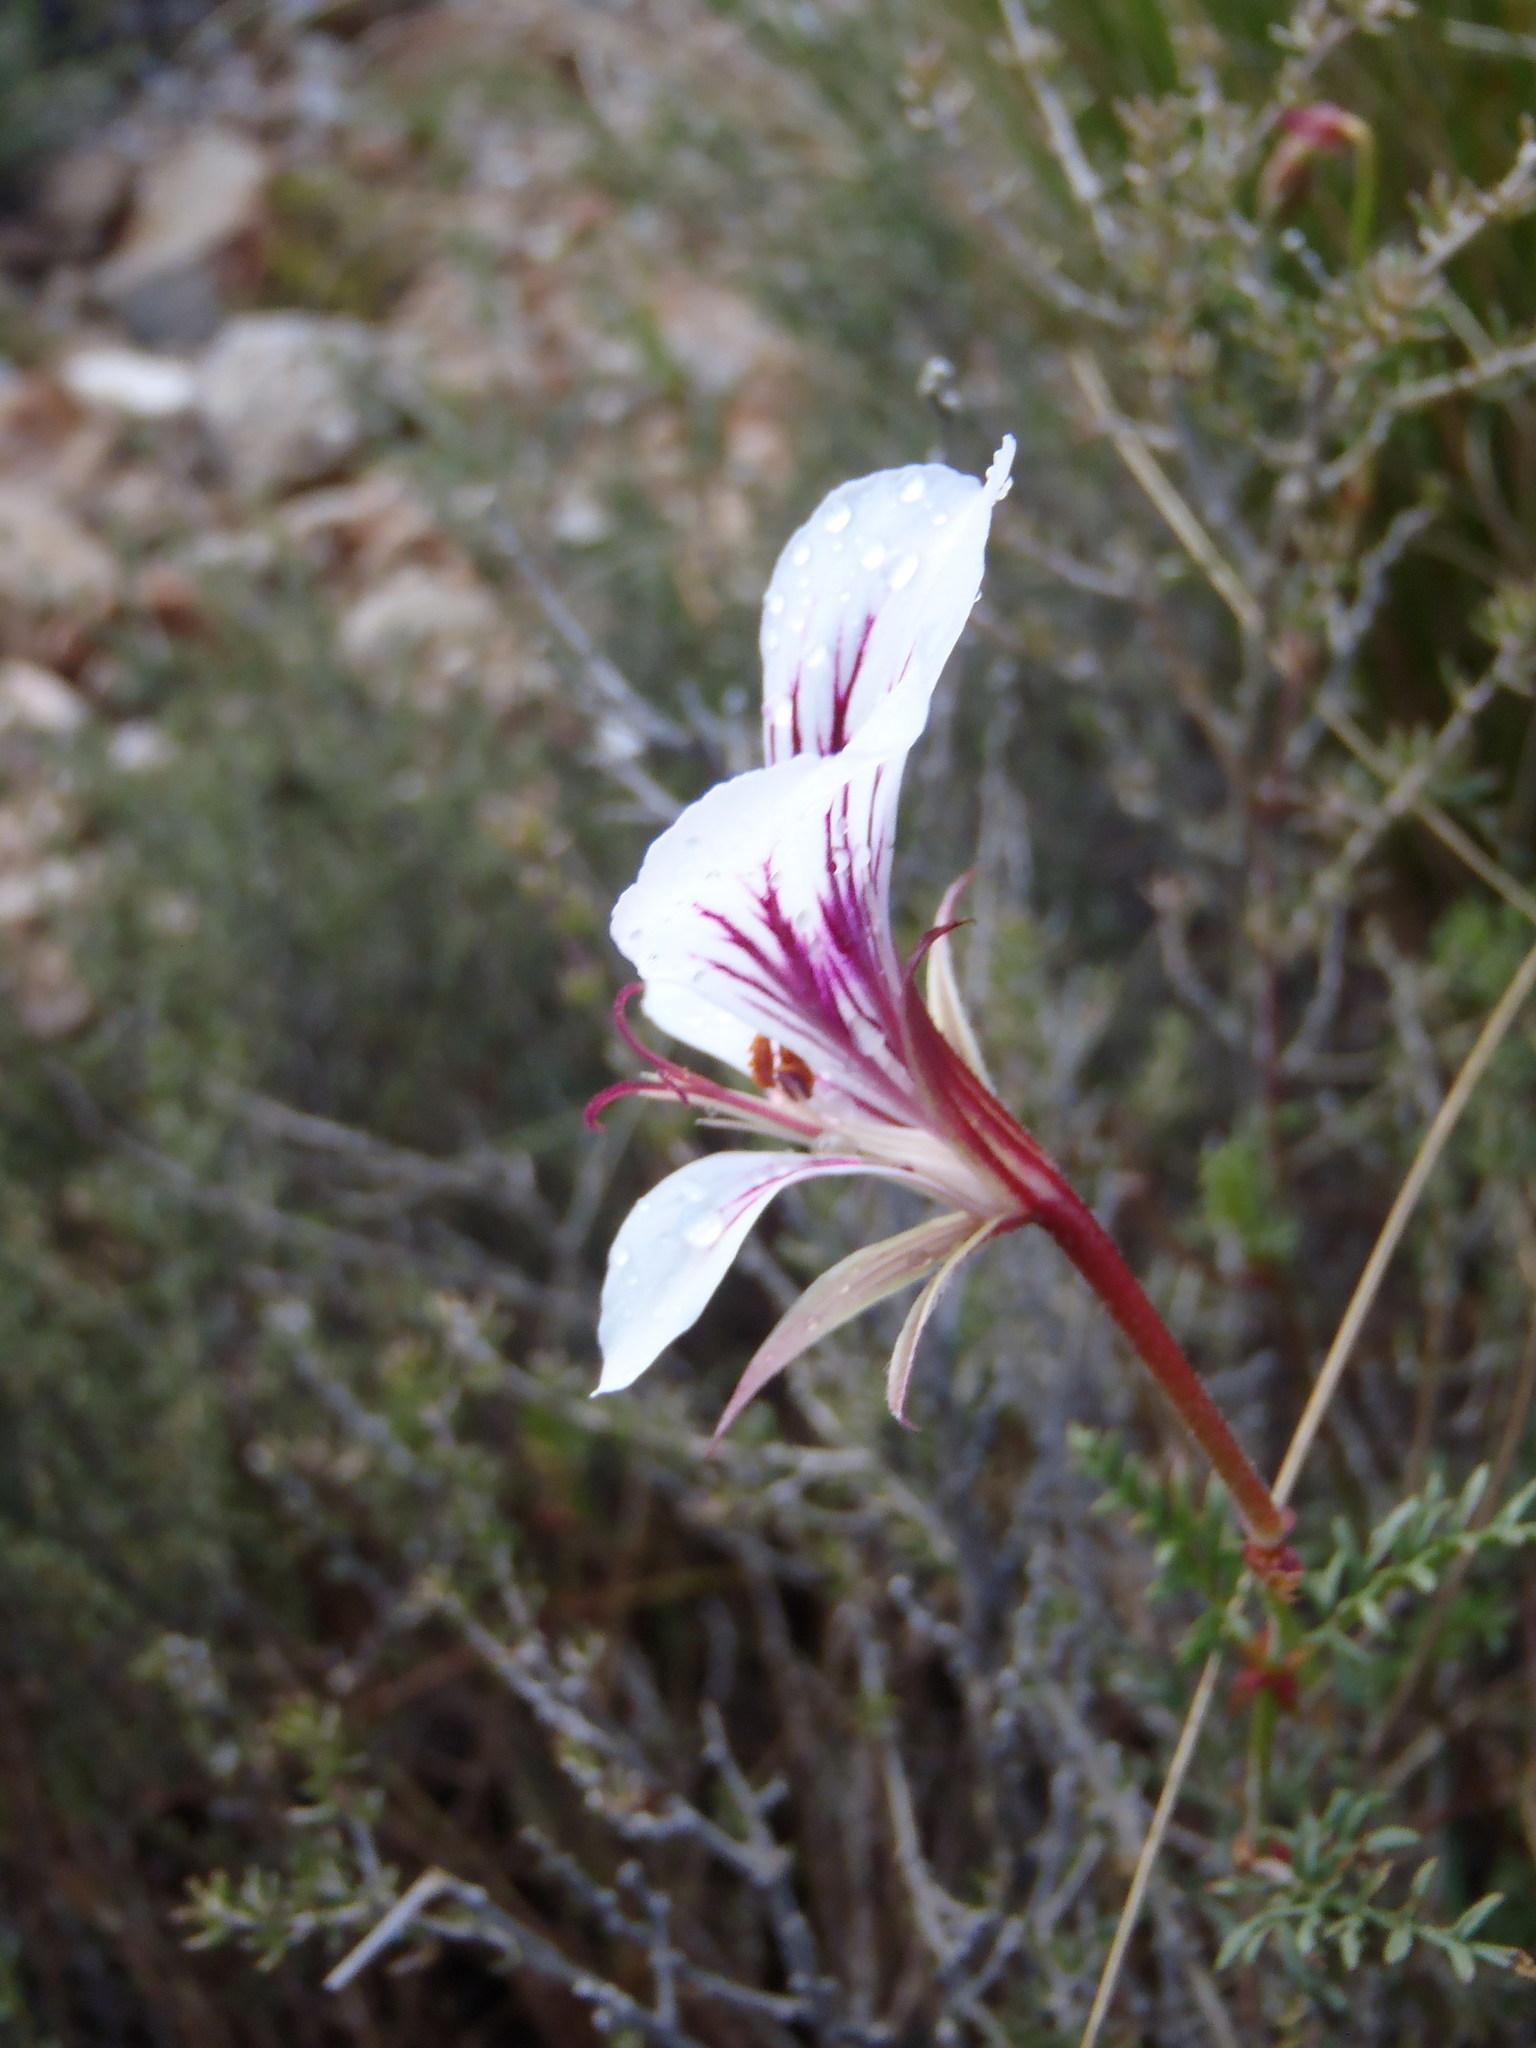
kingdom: Plantae
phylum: Tracheophyta
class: Magnoliopsida
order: Geraniales
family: Geraniaceae
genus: Pelargonium
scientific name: Pelargonium myrrhifolium
